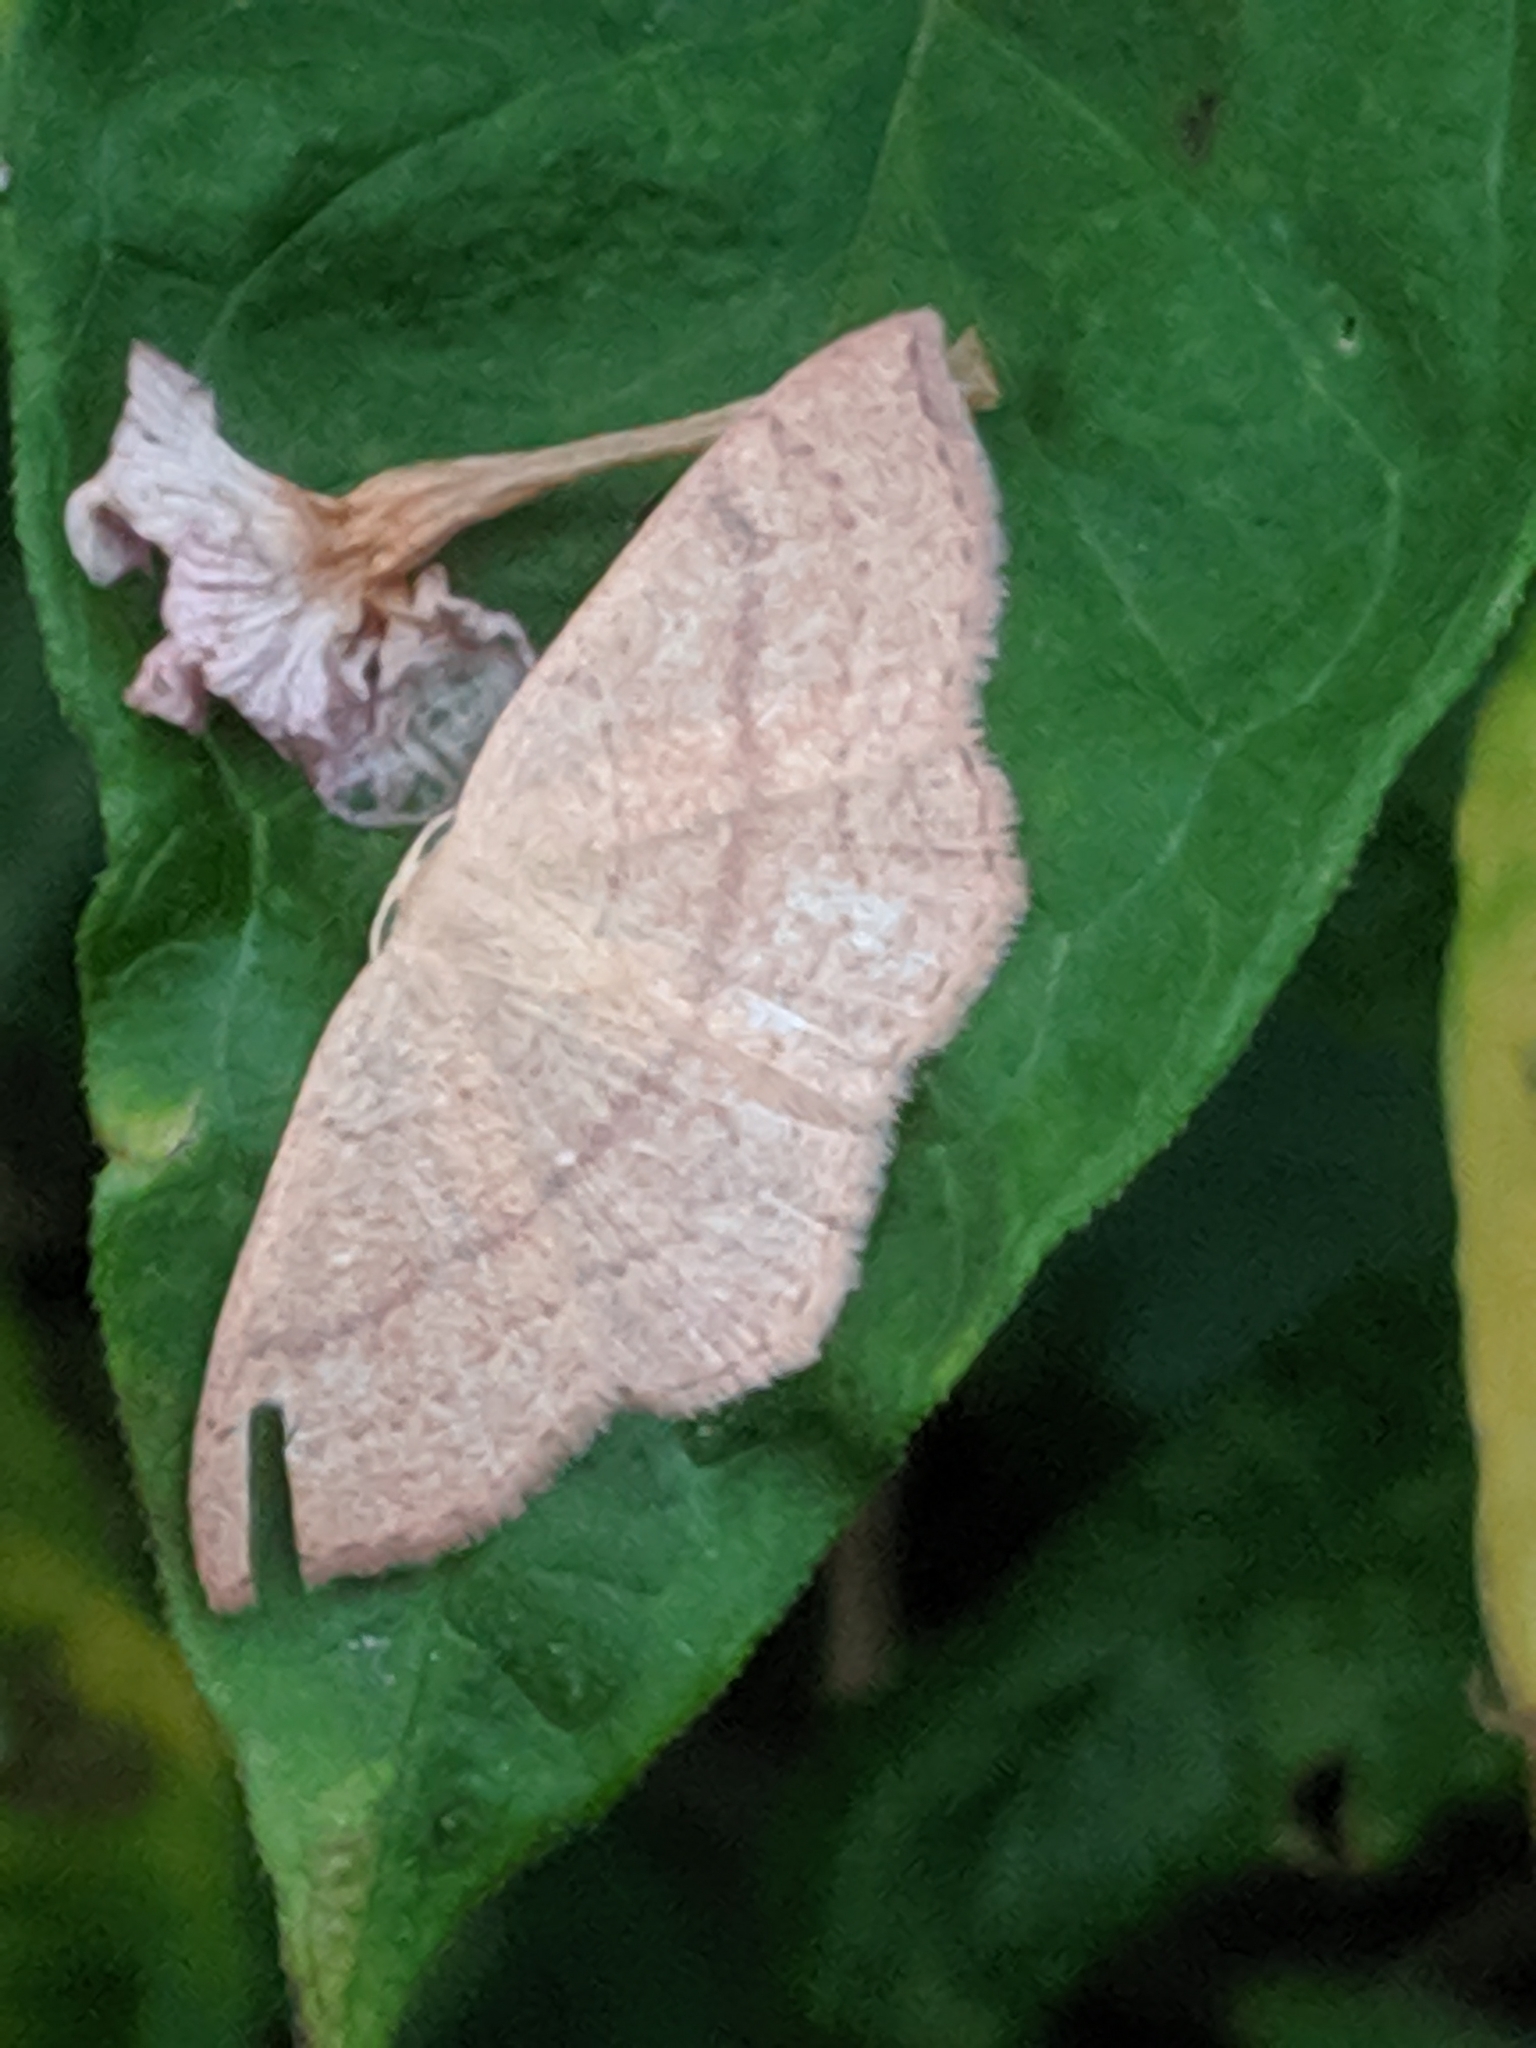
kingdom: Animalia
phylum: Arthropoda
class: Insecta
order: Lepidoptera
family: Geometridae
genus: Cyclophora
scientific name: Cyclophora linearia
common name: Clay triple-lines
